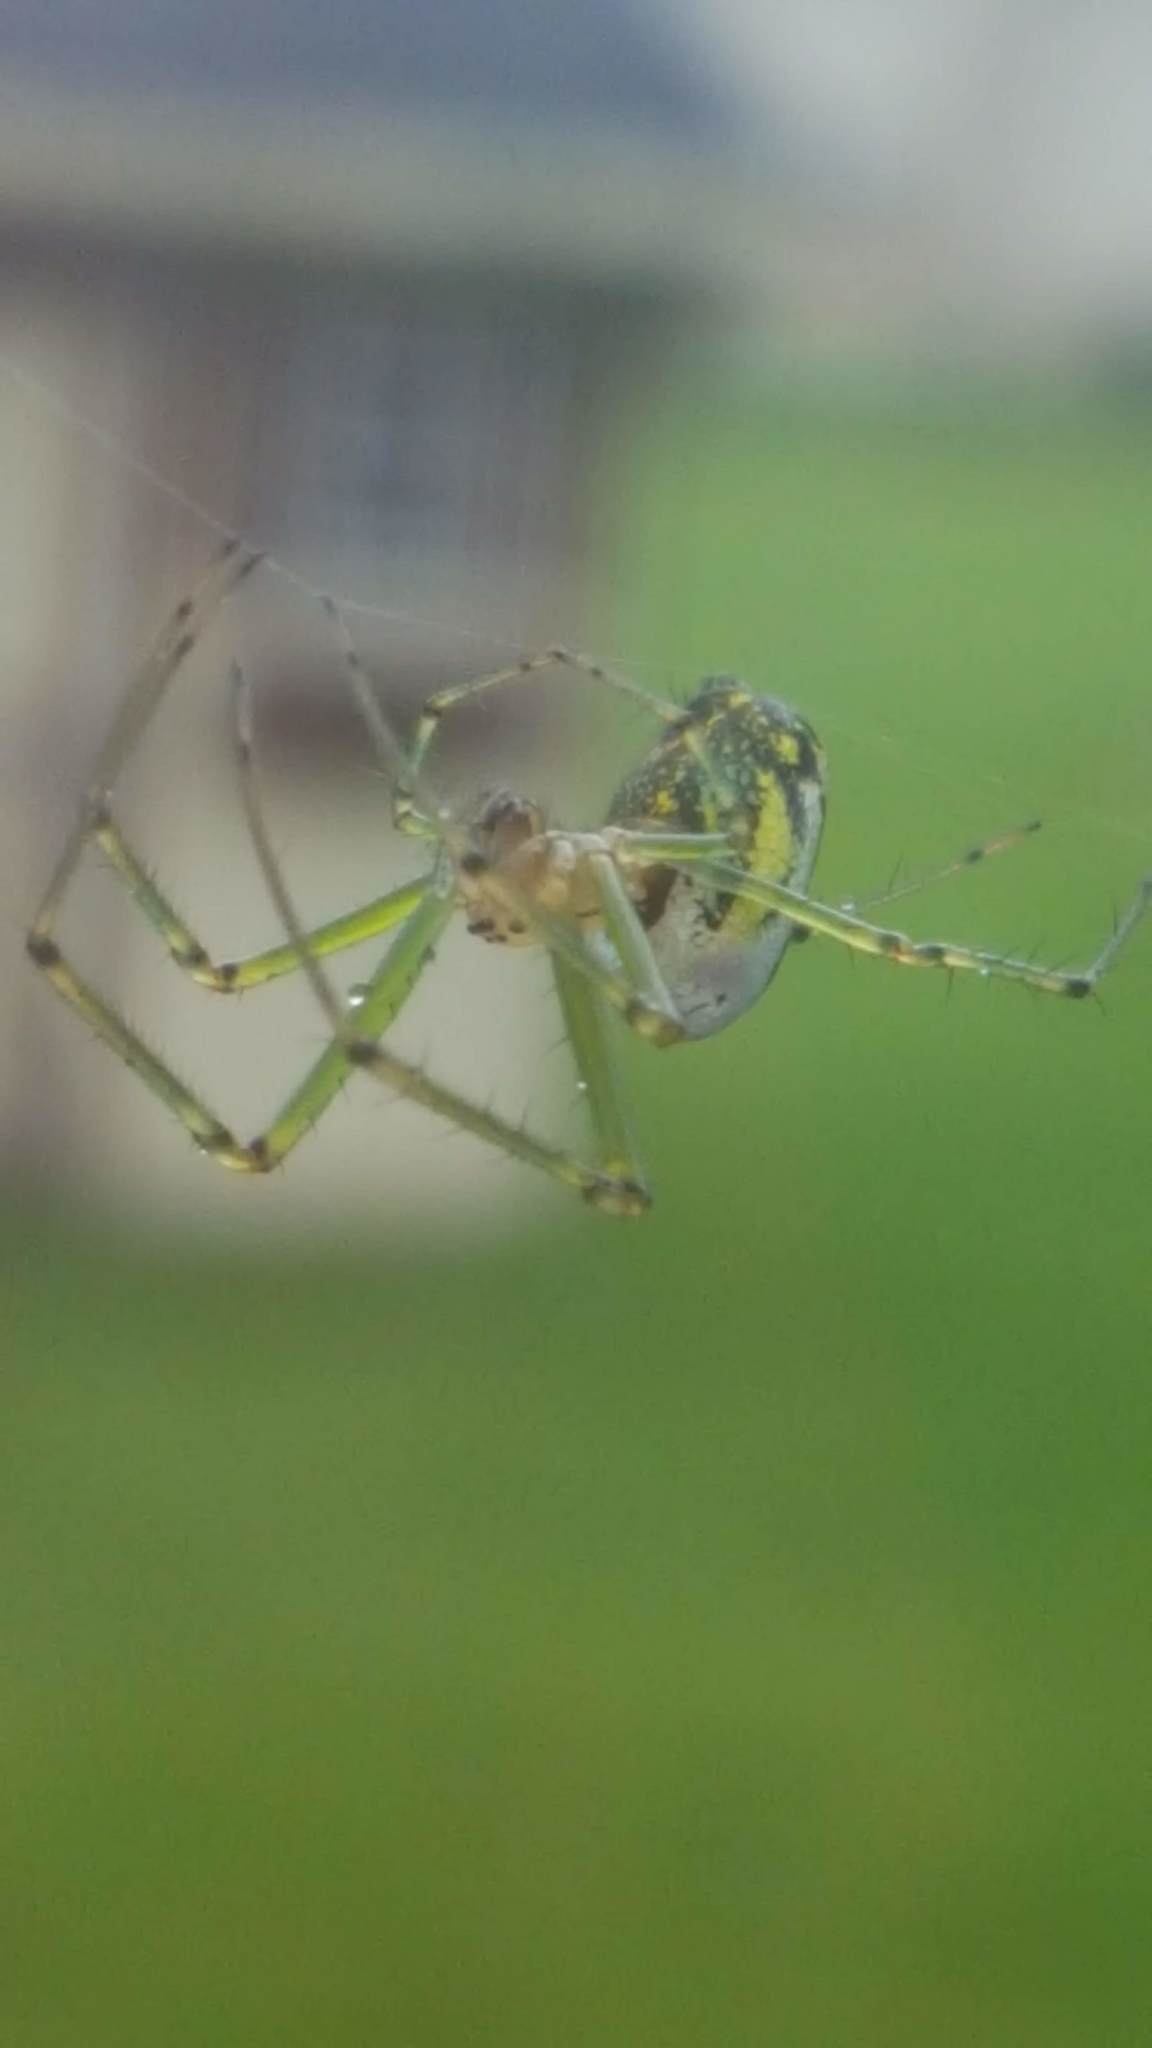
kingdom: Animalia
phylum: Arthropoda
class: Arachnida
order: Araneae
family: Tetragnathidae
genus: Leucauge
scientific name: Leucauge venusta
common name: Longjawed orb weavers
